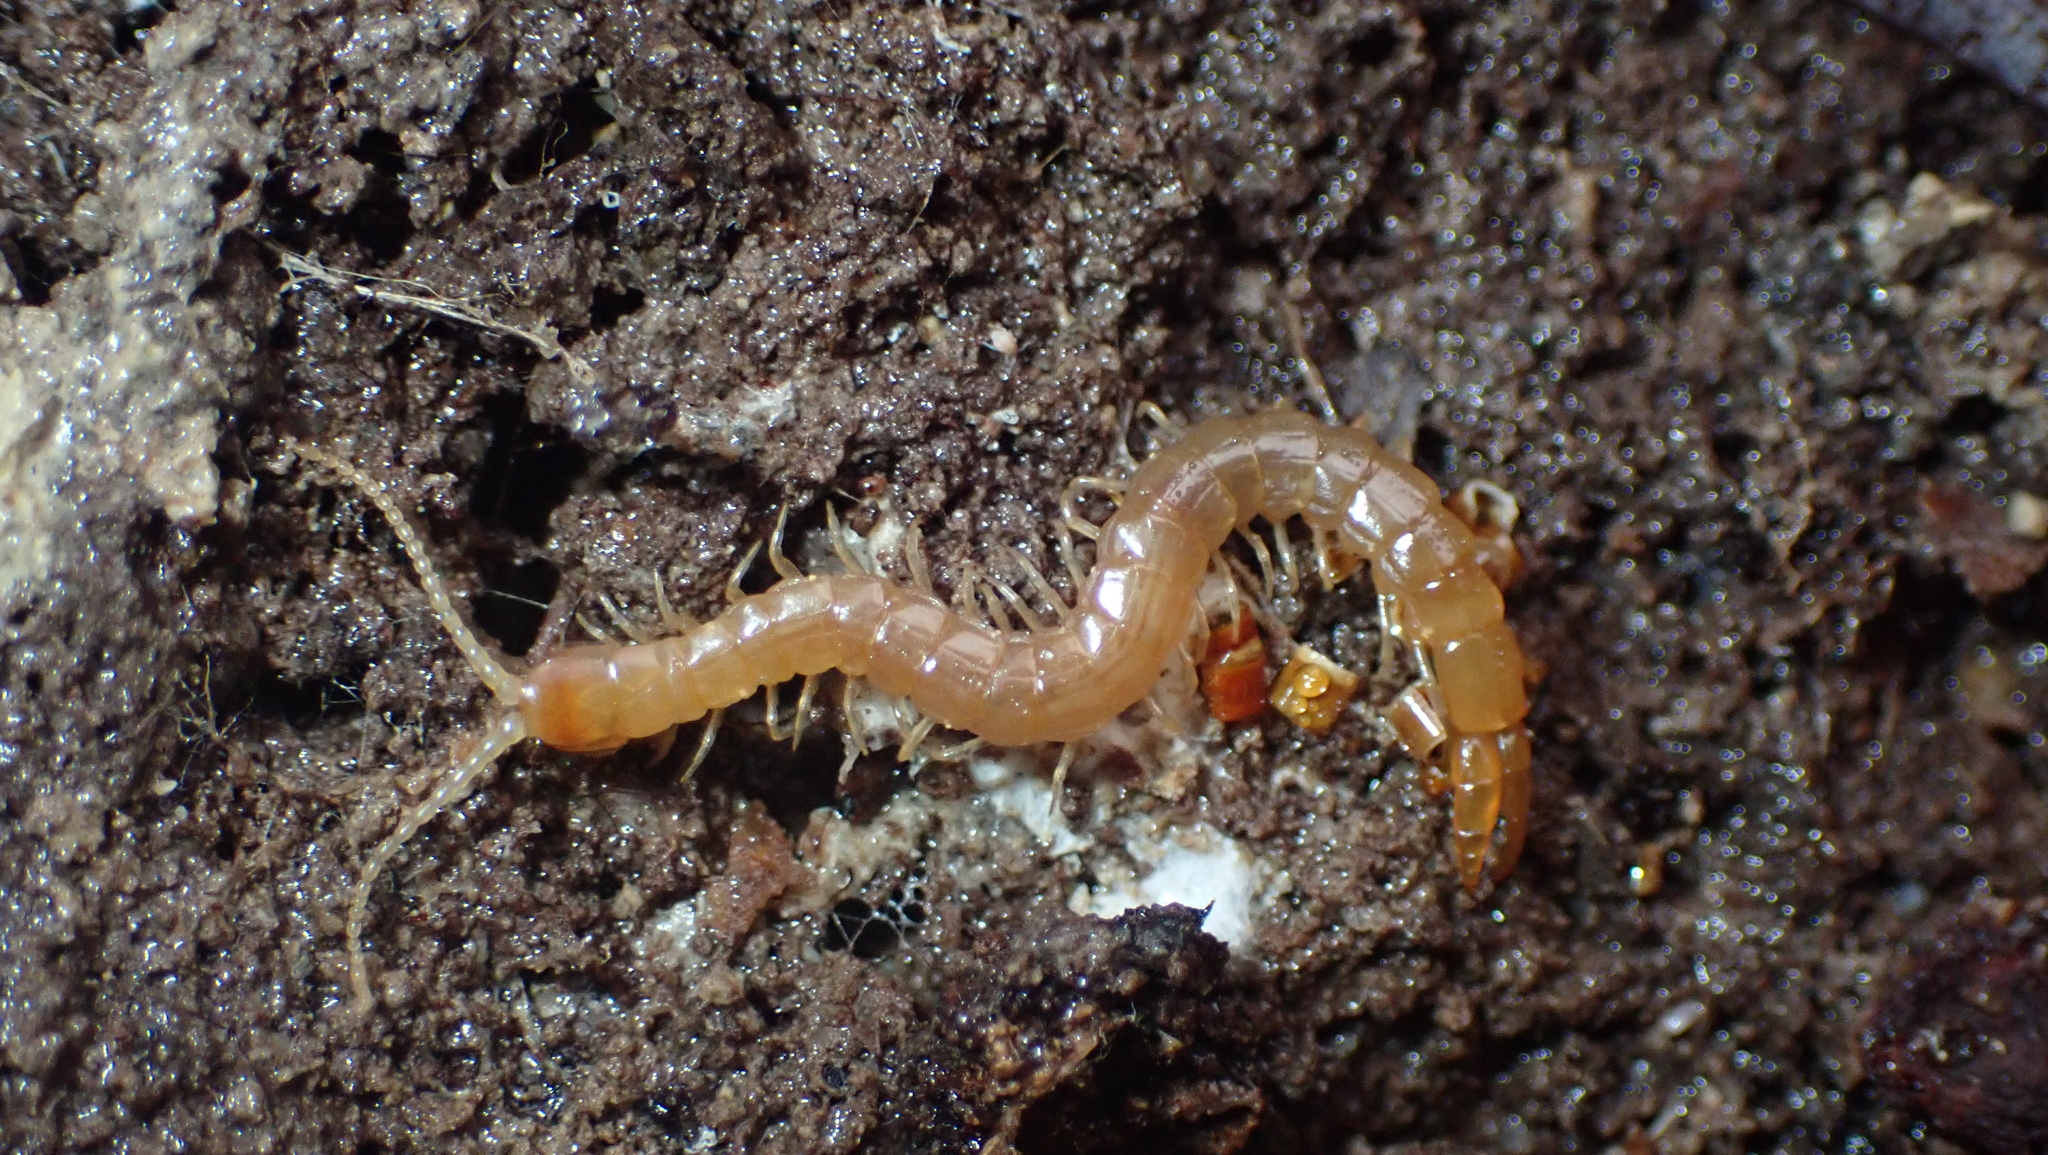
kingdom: Animalia
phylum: Arthropoda
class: Chilopoda
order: Scolopendromorpha
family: Cryptopidae
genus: Theatops
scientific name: Theatops posticus
